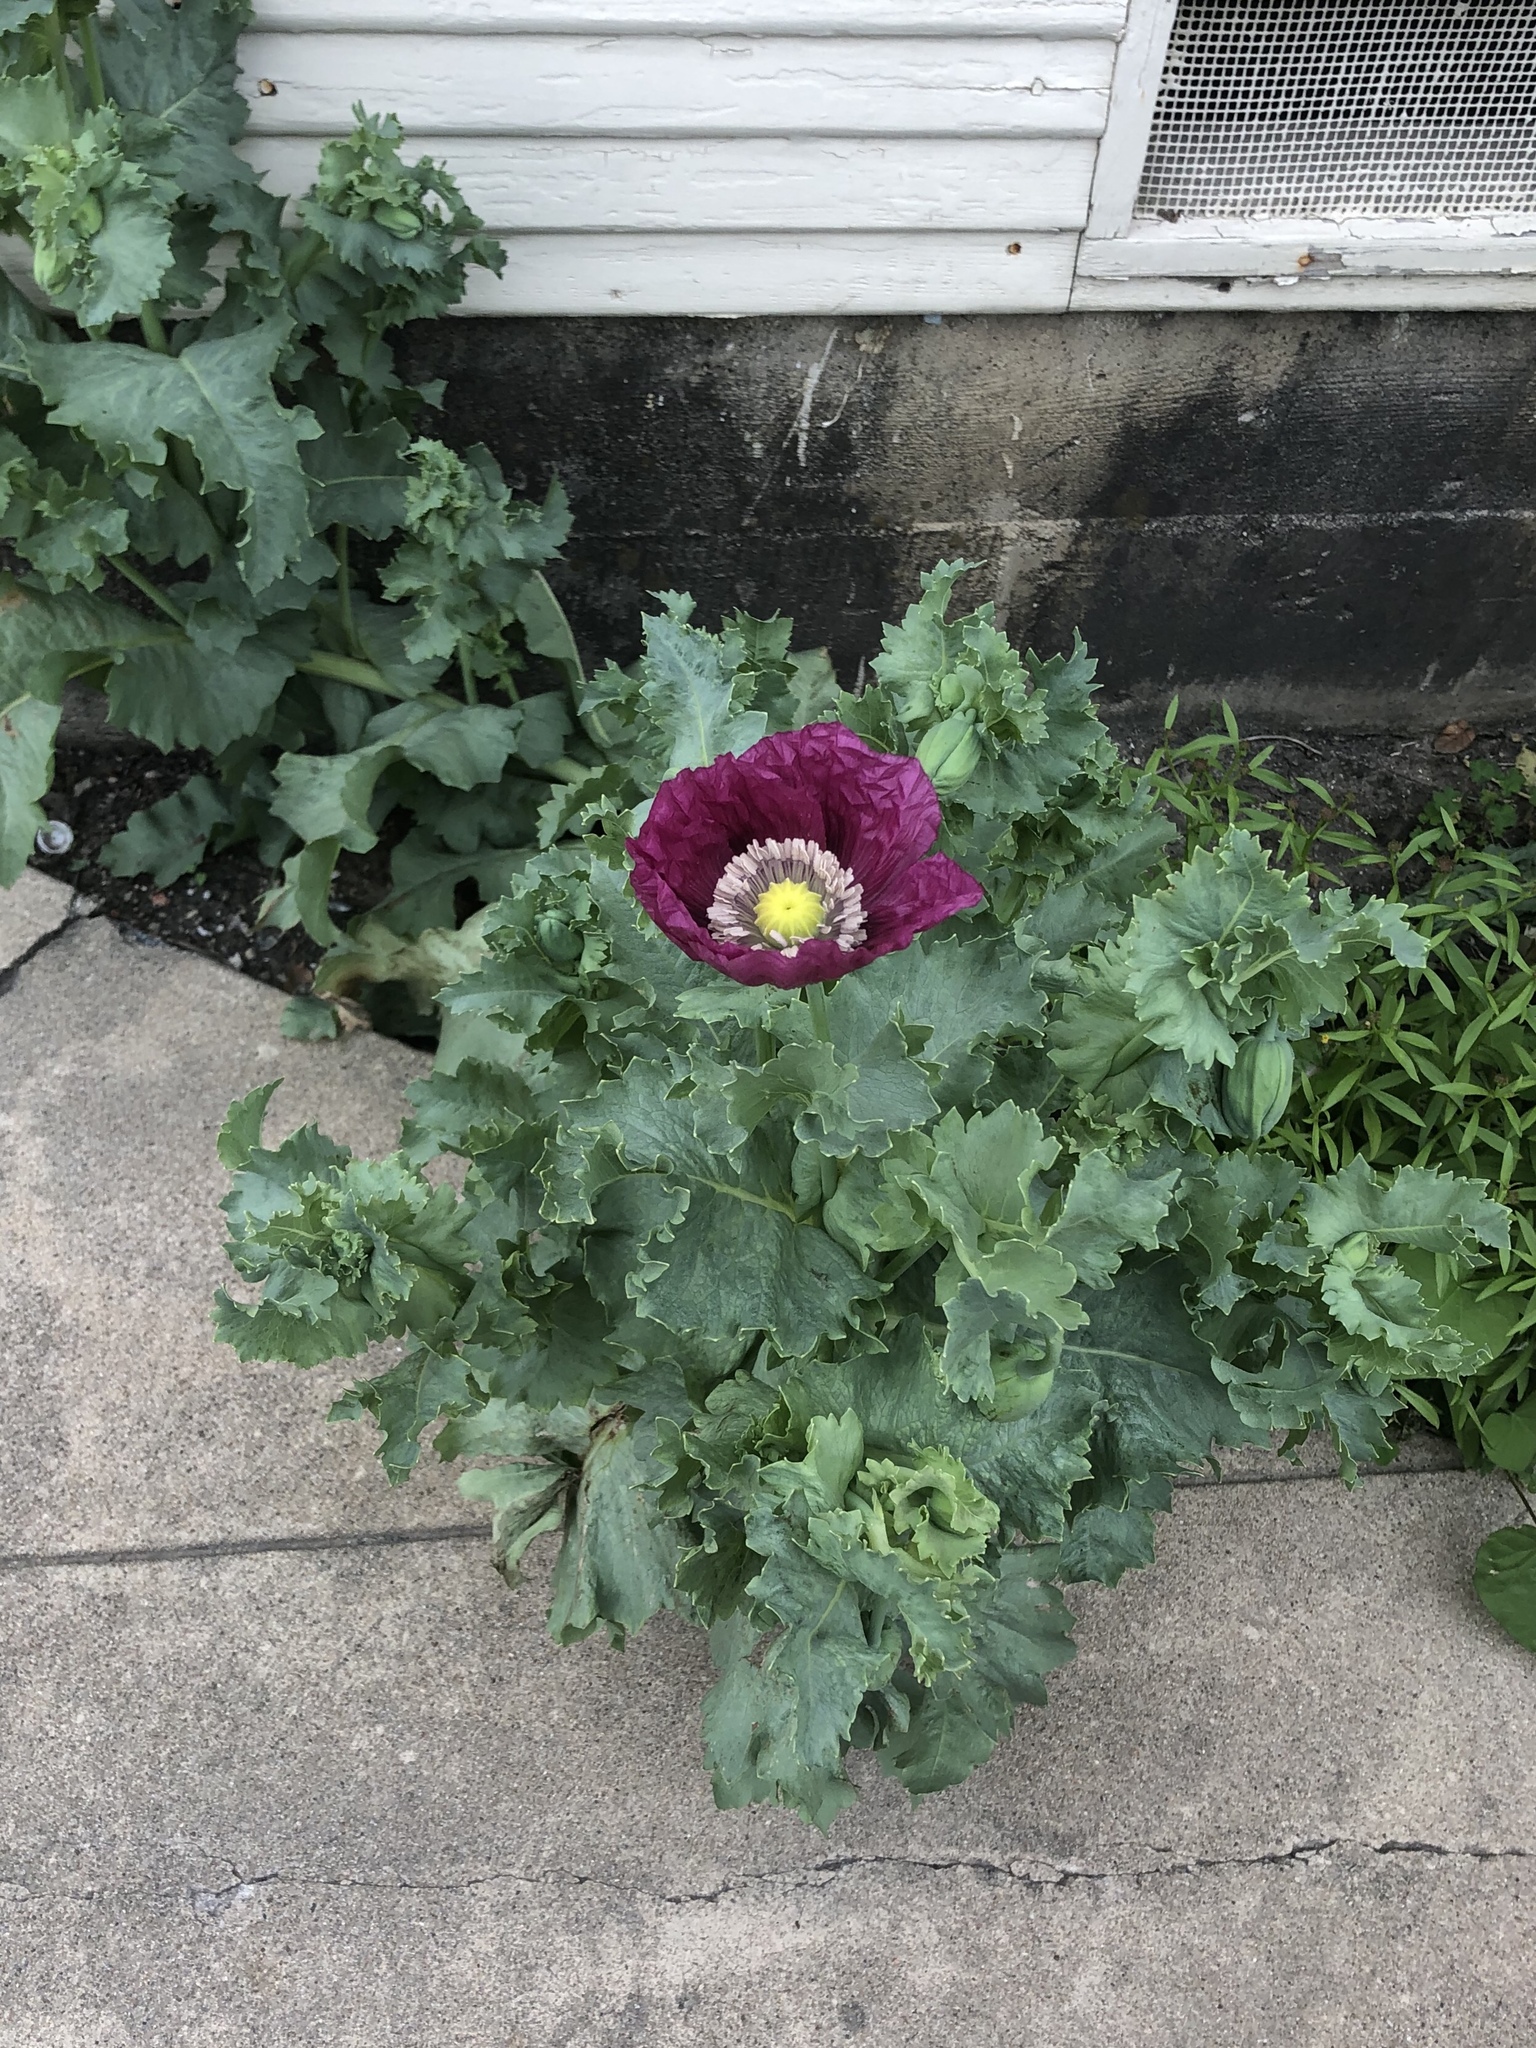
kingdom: Plantae
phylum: Tracheophyta
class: Magnoliopsida
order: Ranunculales
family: Papaveraceae
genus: Papaver
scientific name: Papaver somniferum
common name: Opium poppy
